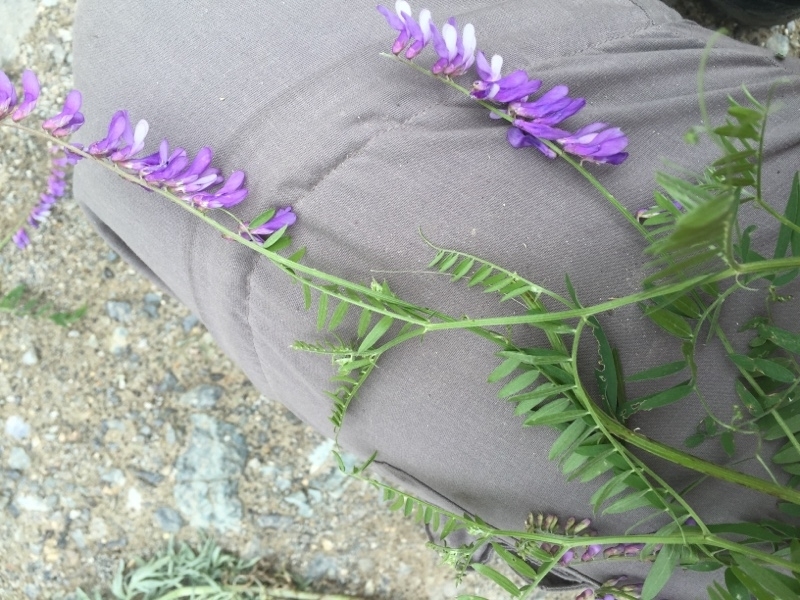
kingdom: Plantae
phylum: Tracheophyta
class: Magnoliopsida
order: Fabales
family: Fabaceae
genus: Vicia
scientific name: Vicia villosa
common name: Fodder vetch
